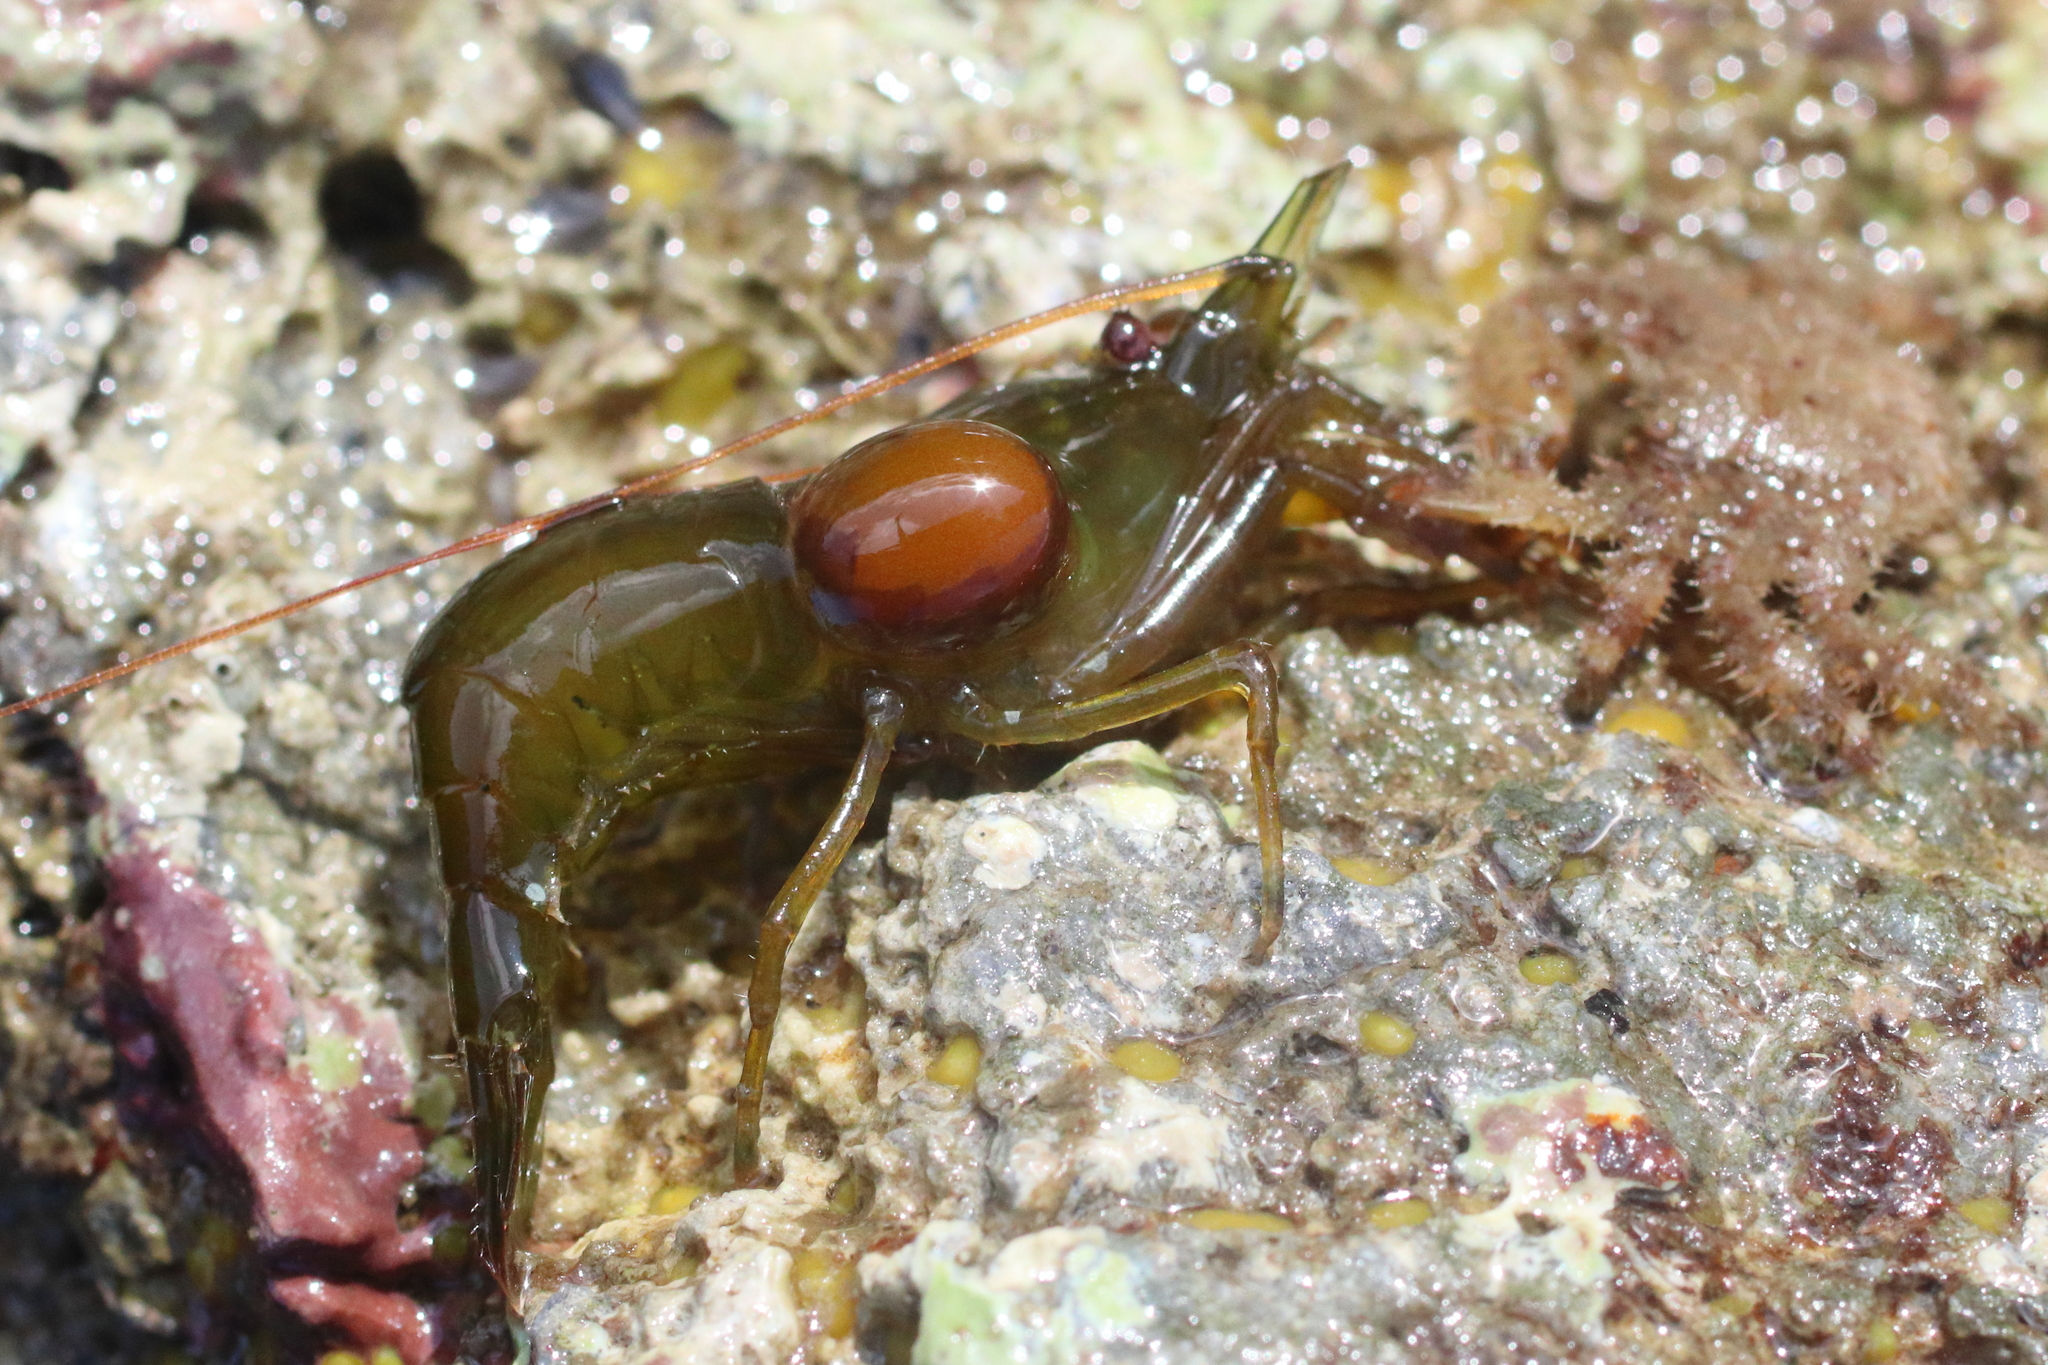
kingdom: Animalia
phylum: Arthropoda
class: Malacostraca
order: Decapoda
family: Thoridae
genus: Heptacarpus
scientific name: Heptacarpus brevirostris
